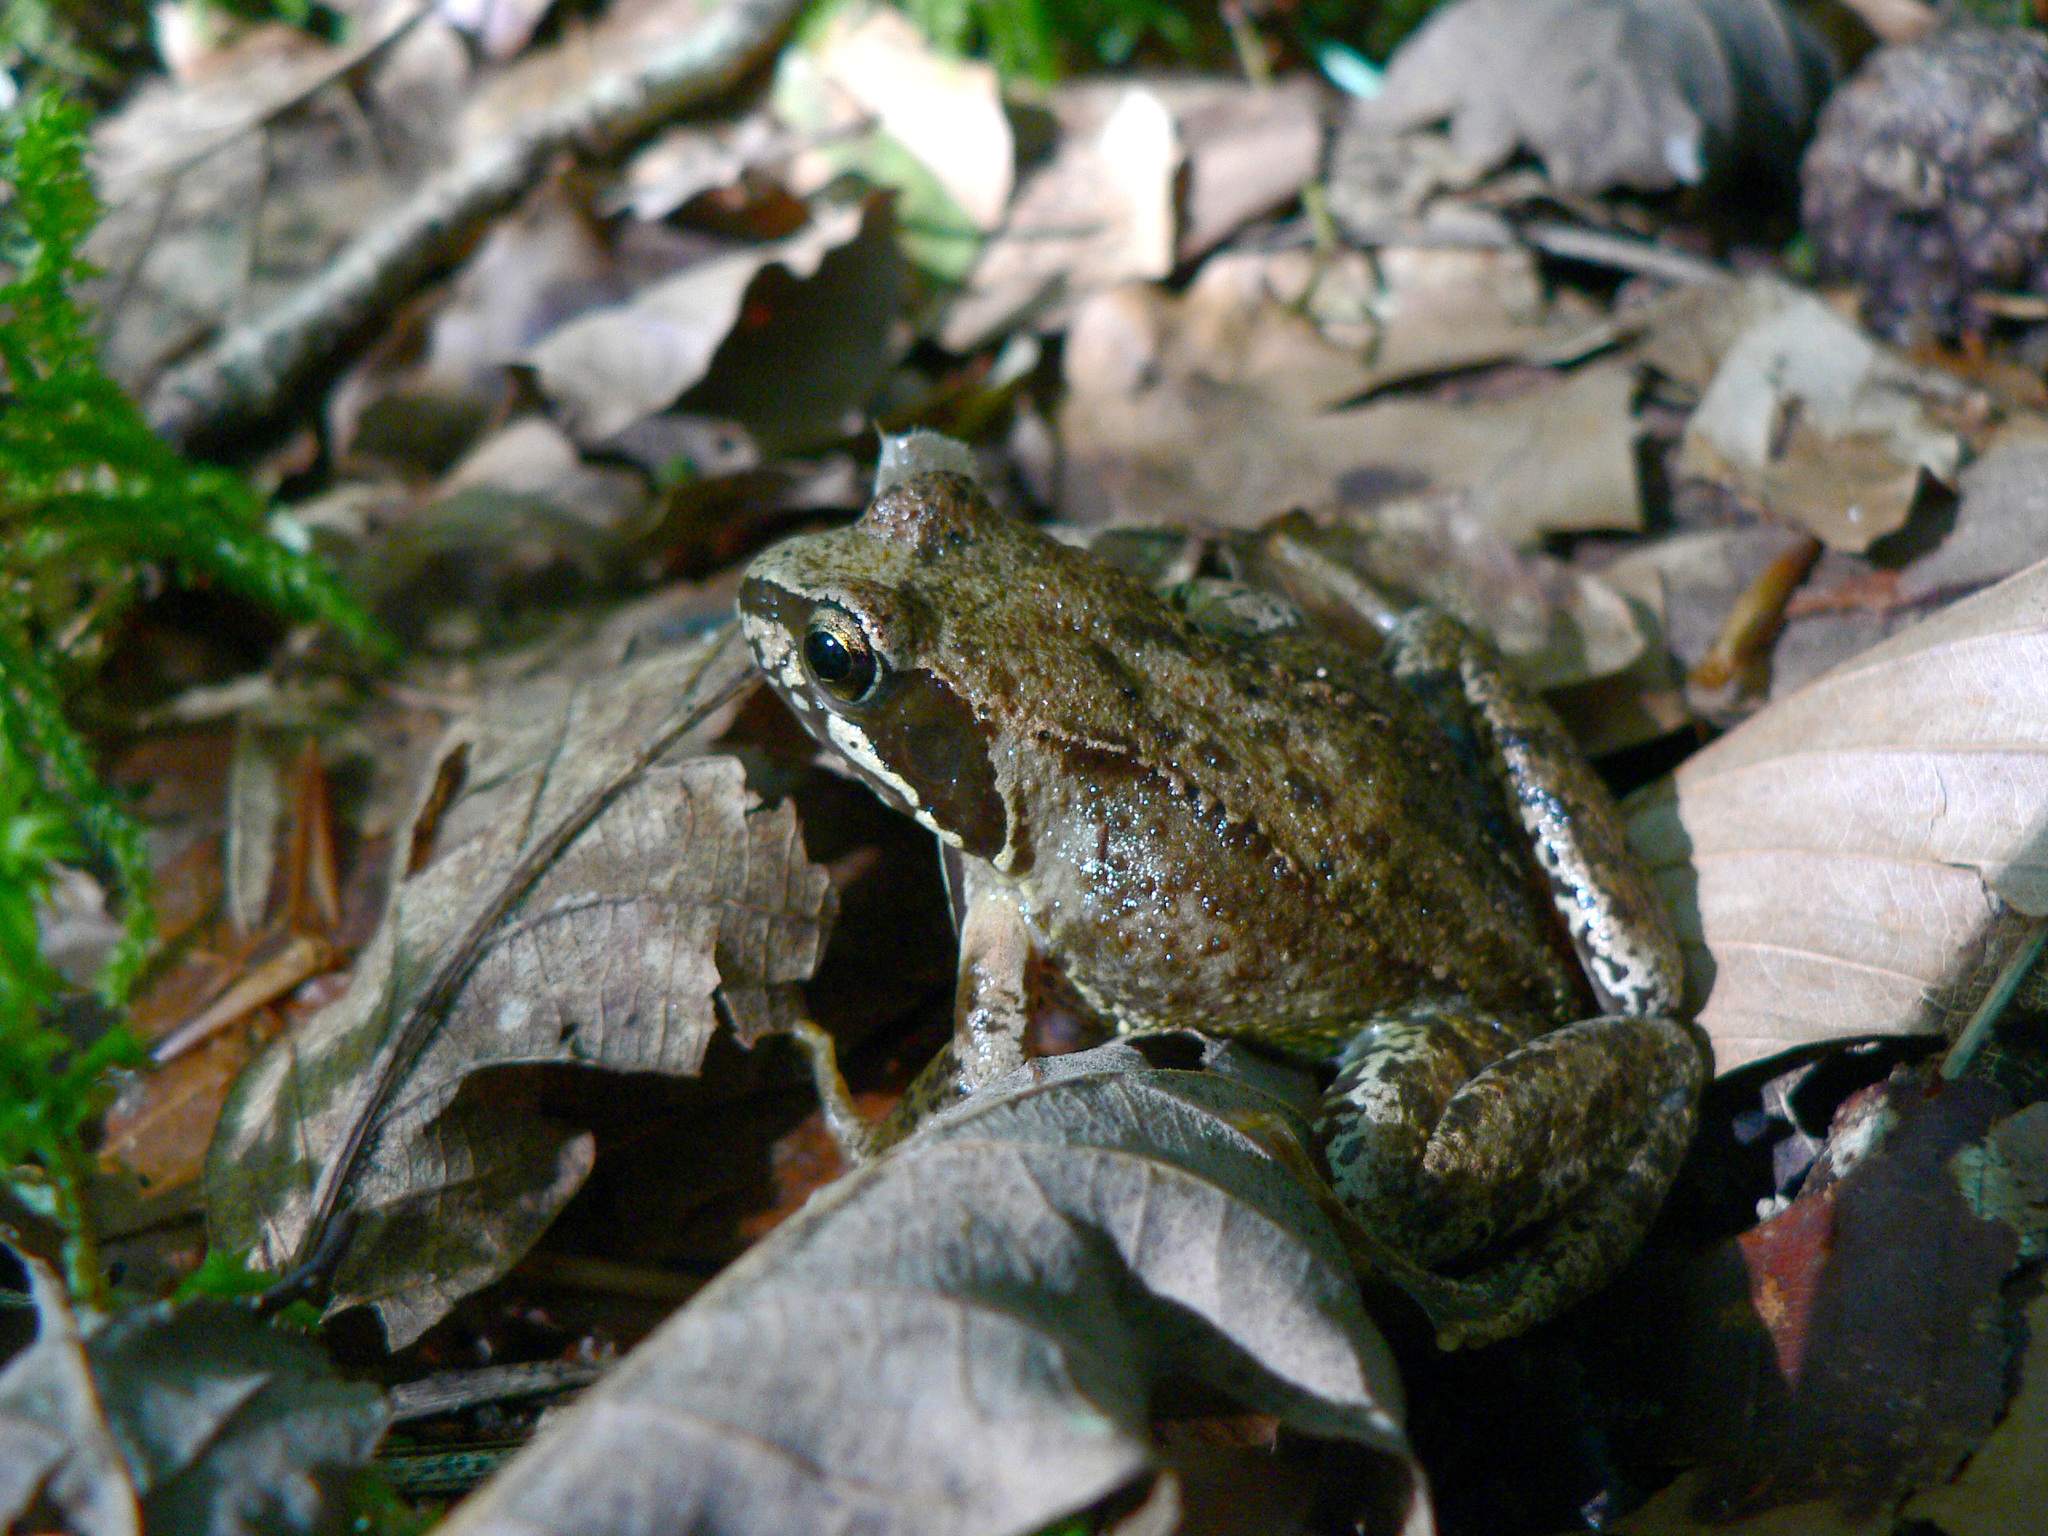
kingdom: Animalia
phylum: Chordata
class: Amphibia
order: Anura
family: Ranidae
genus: Rana
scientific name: Rana temporaria
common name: Common frog
